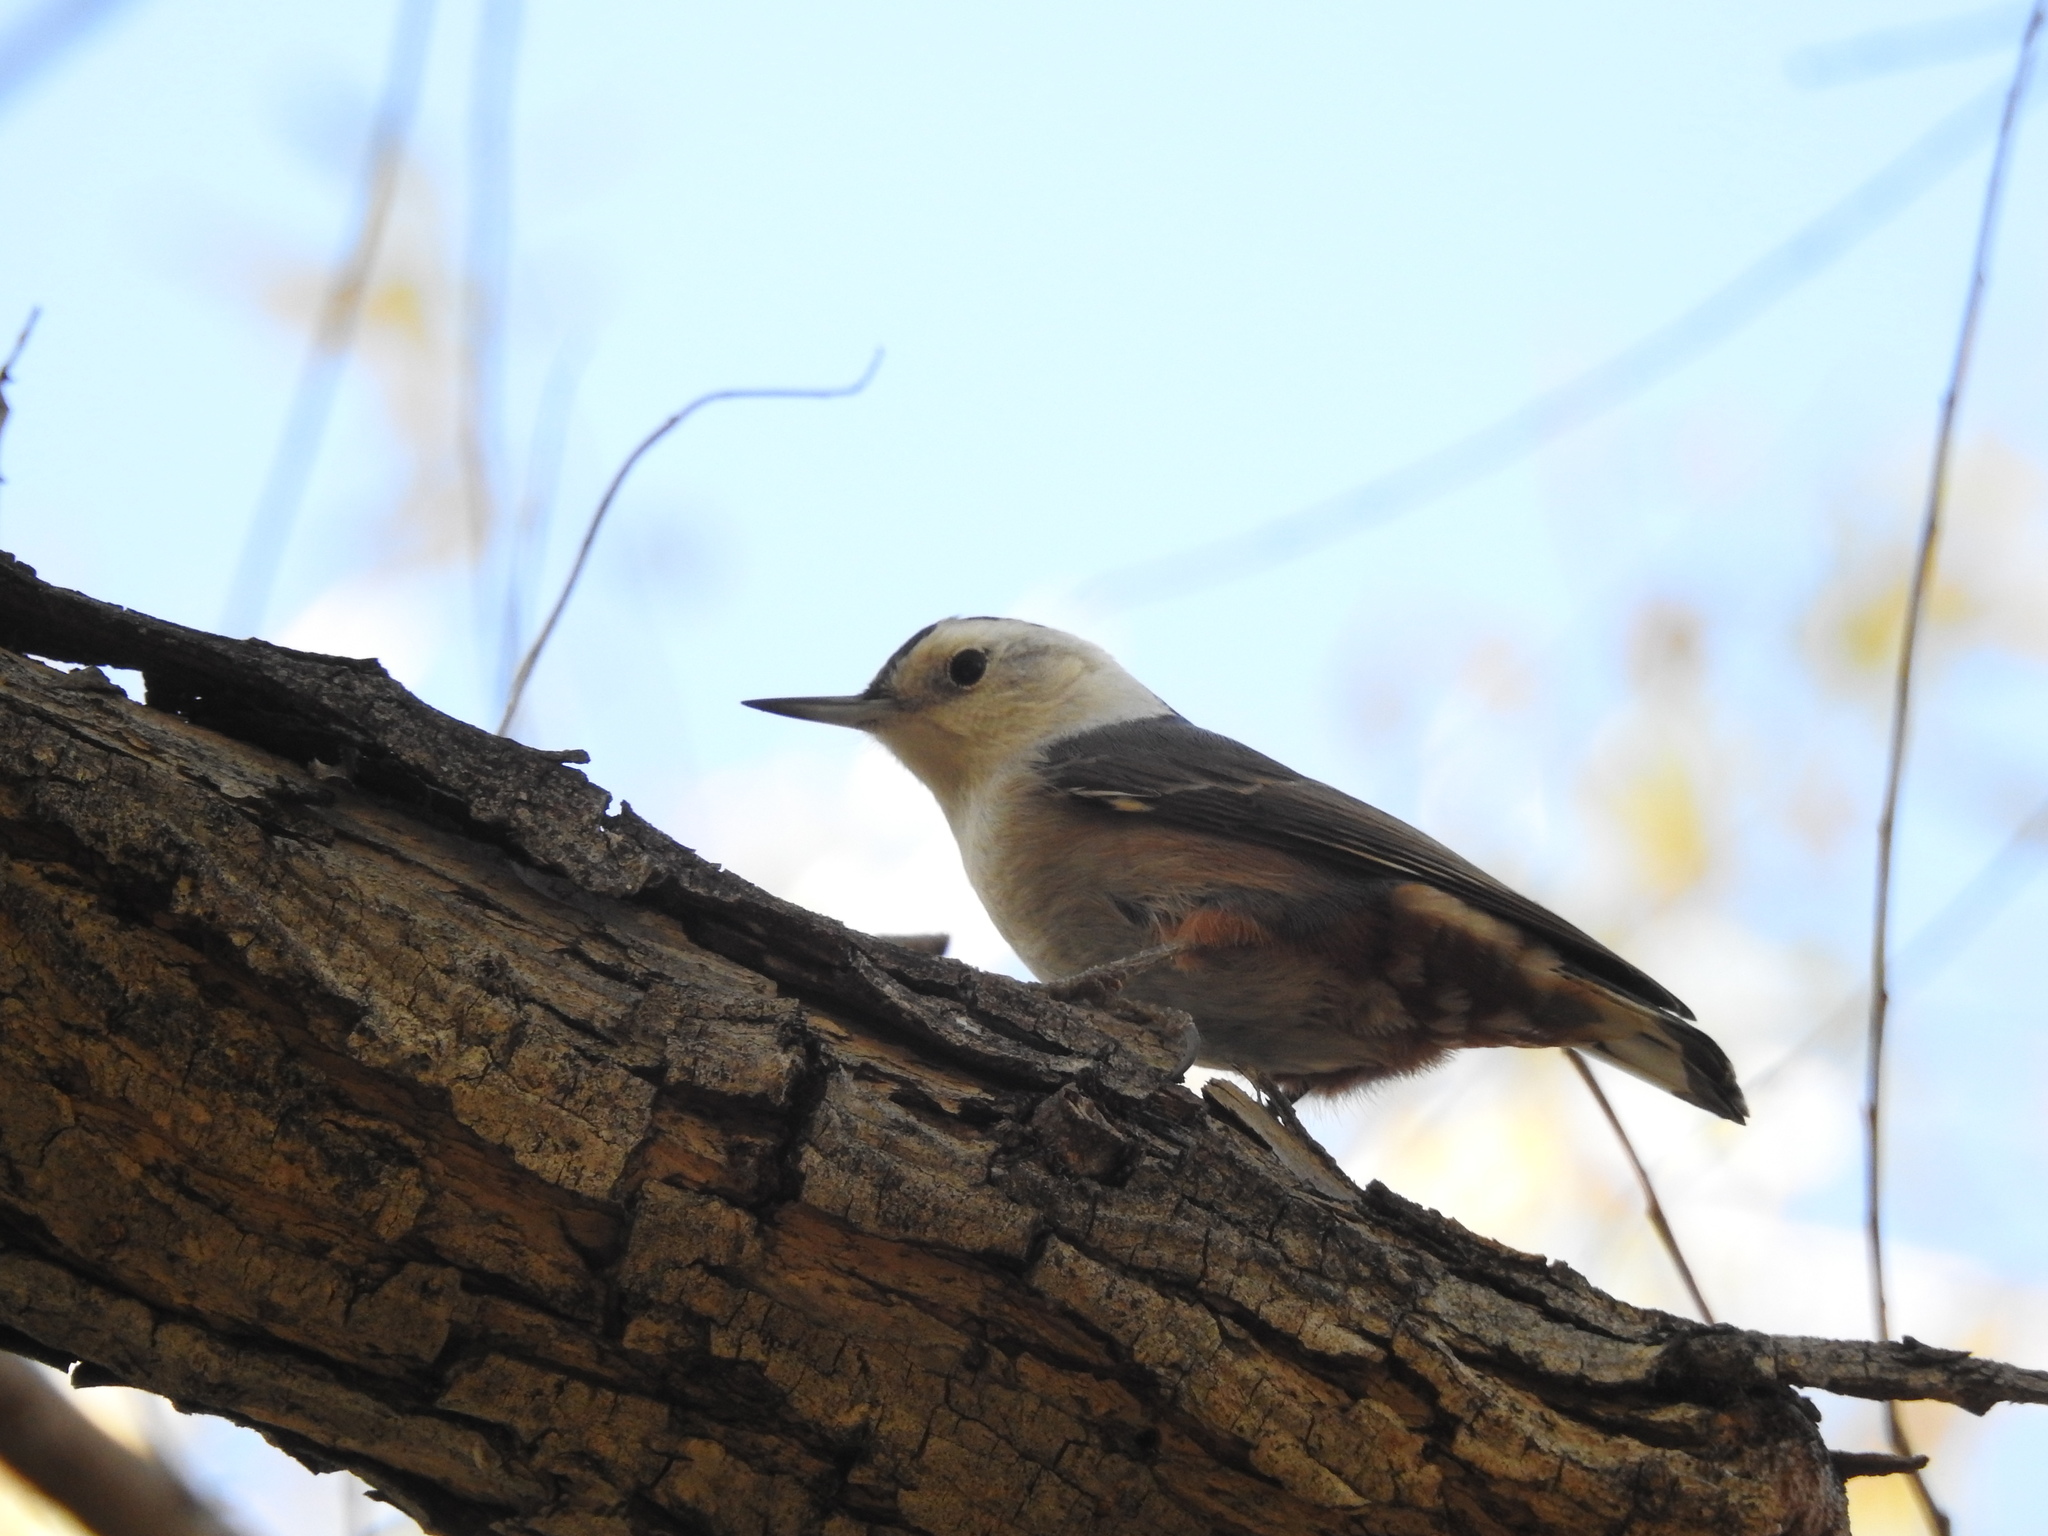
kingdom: Animalia
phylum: Chordata
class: Aves
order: Passeriformes
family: Sittidae
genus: Sitta
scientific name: Sitta carolinensis
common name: White-breasted nuthatch
